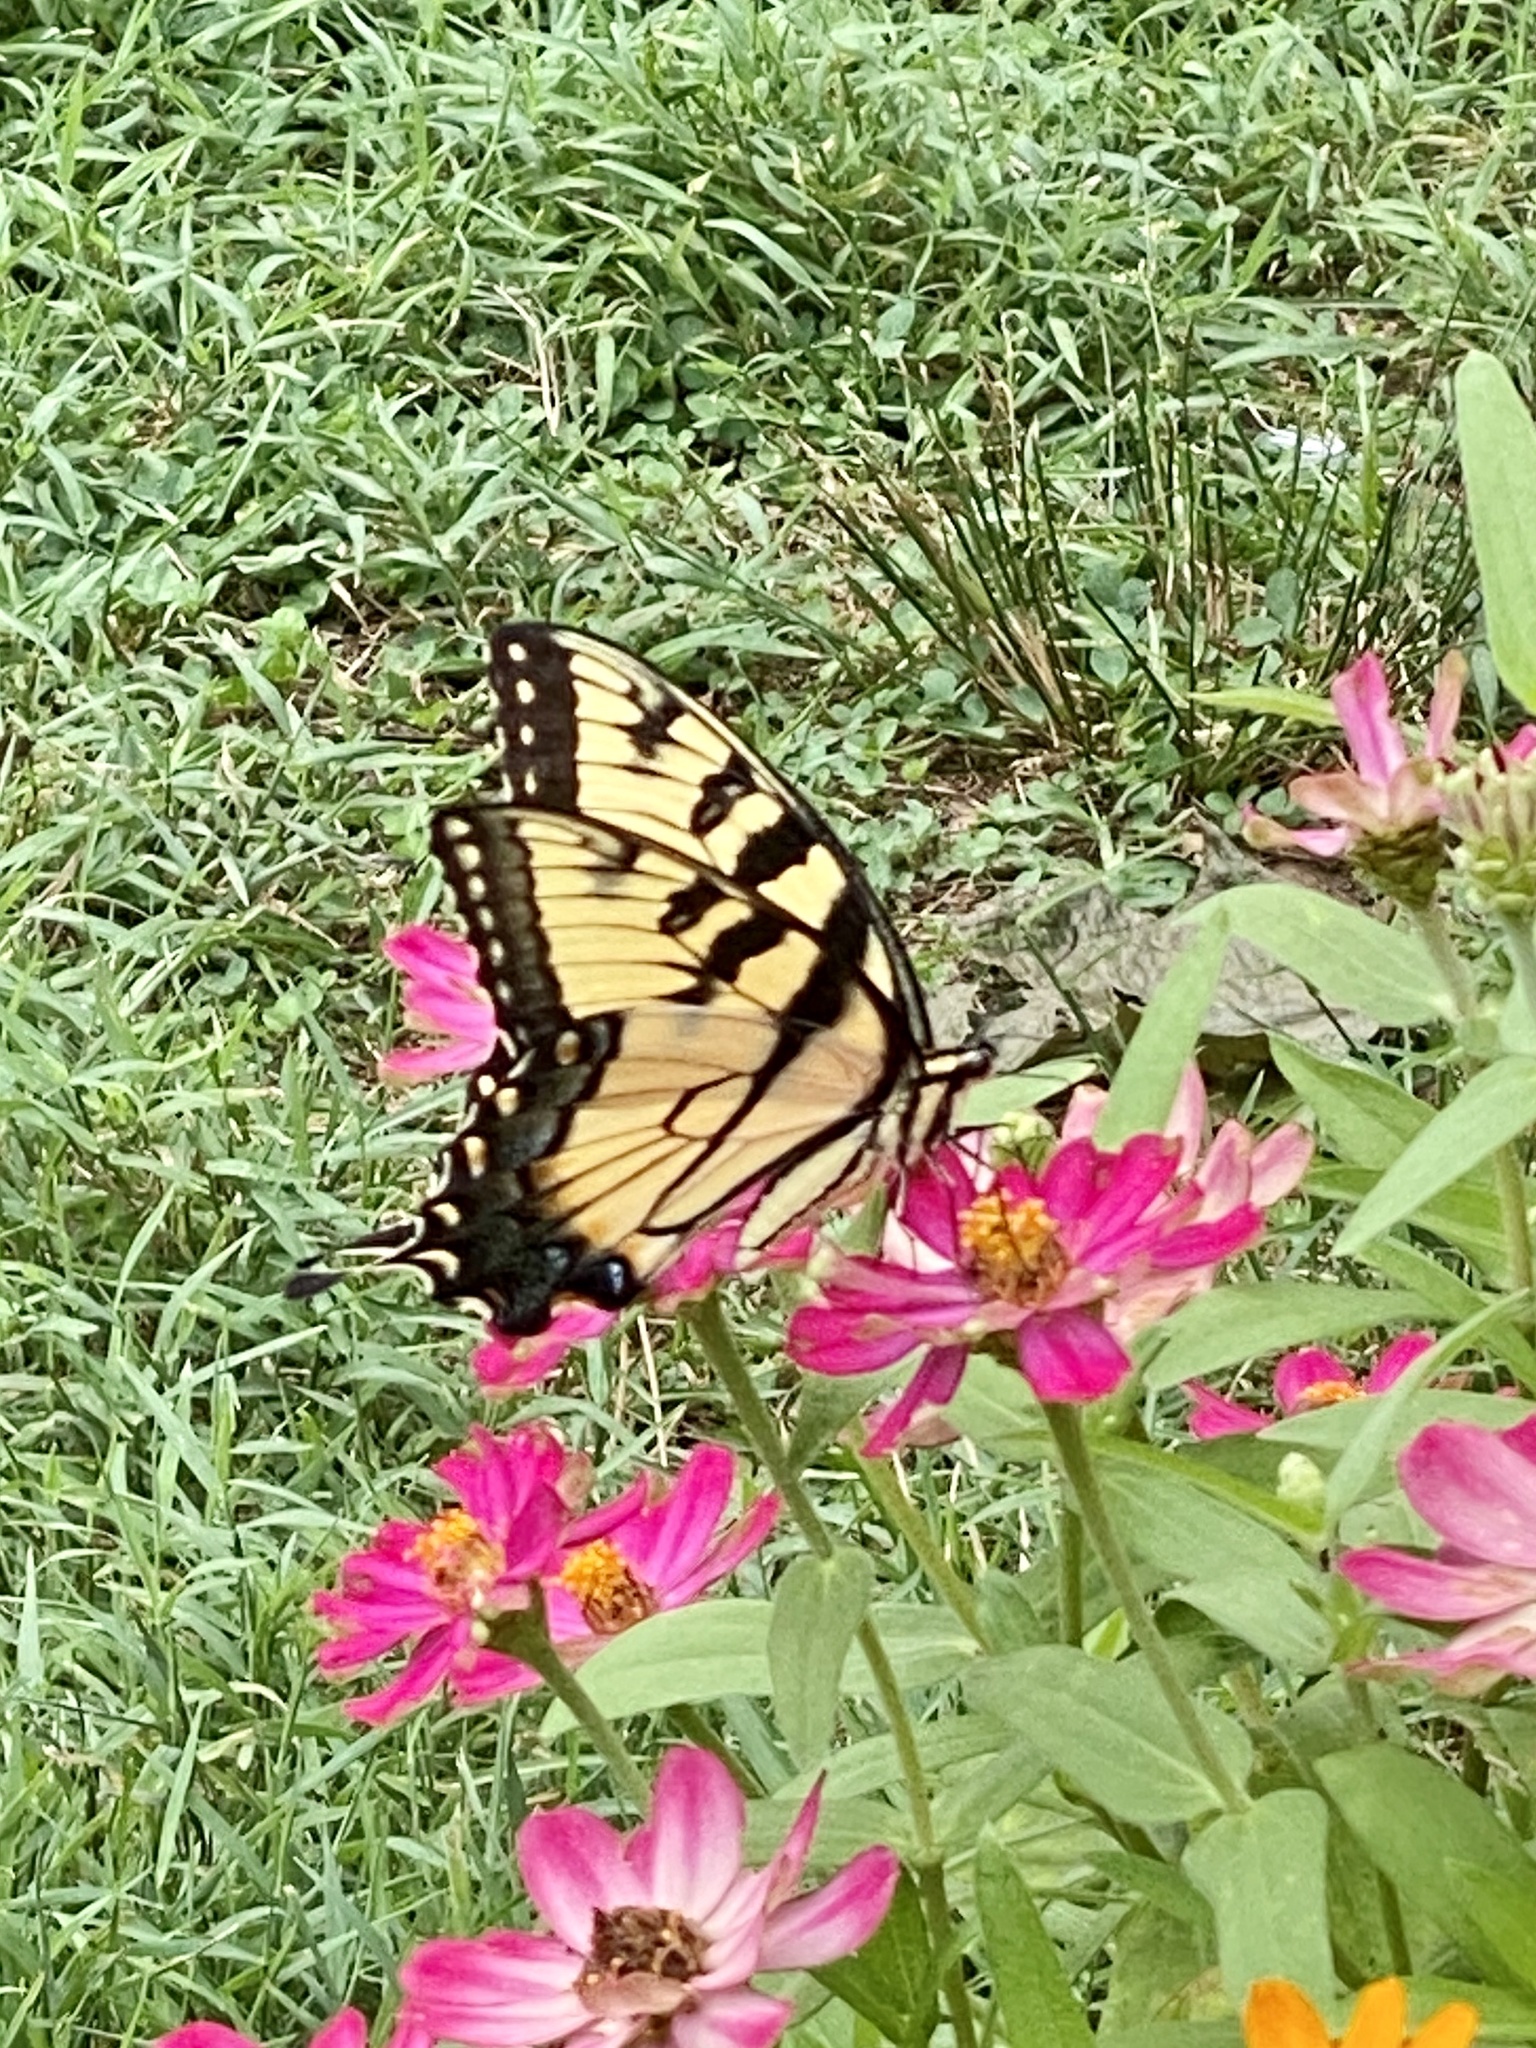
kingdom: Animalia
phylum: Arthropoda
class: Insecta
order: Lepidoptera
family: Papilionidae
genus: Papilio
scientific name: Papilio glaucus
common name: Tiger swallowtail
